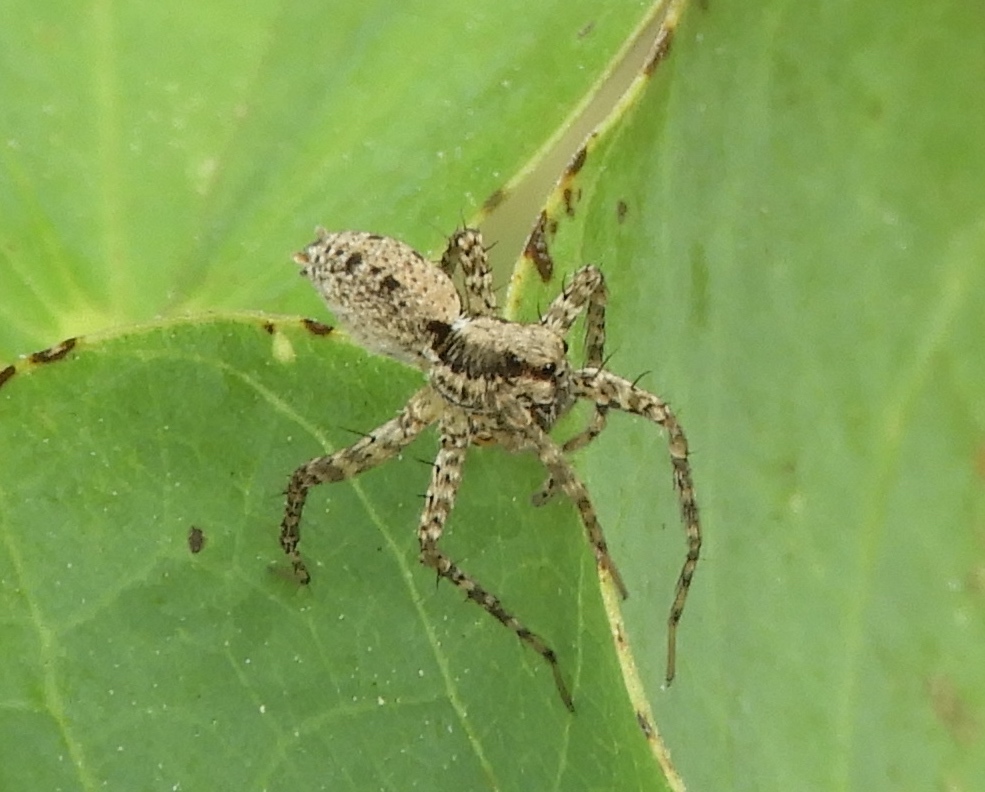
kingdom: Animalia
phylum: Arthropoda
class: Arachnida
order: Araneae
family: Lycosidae
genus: Pardosa
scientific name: Pardosa
